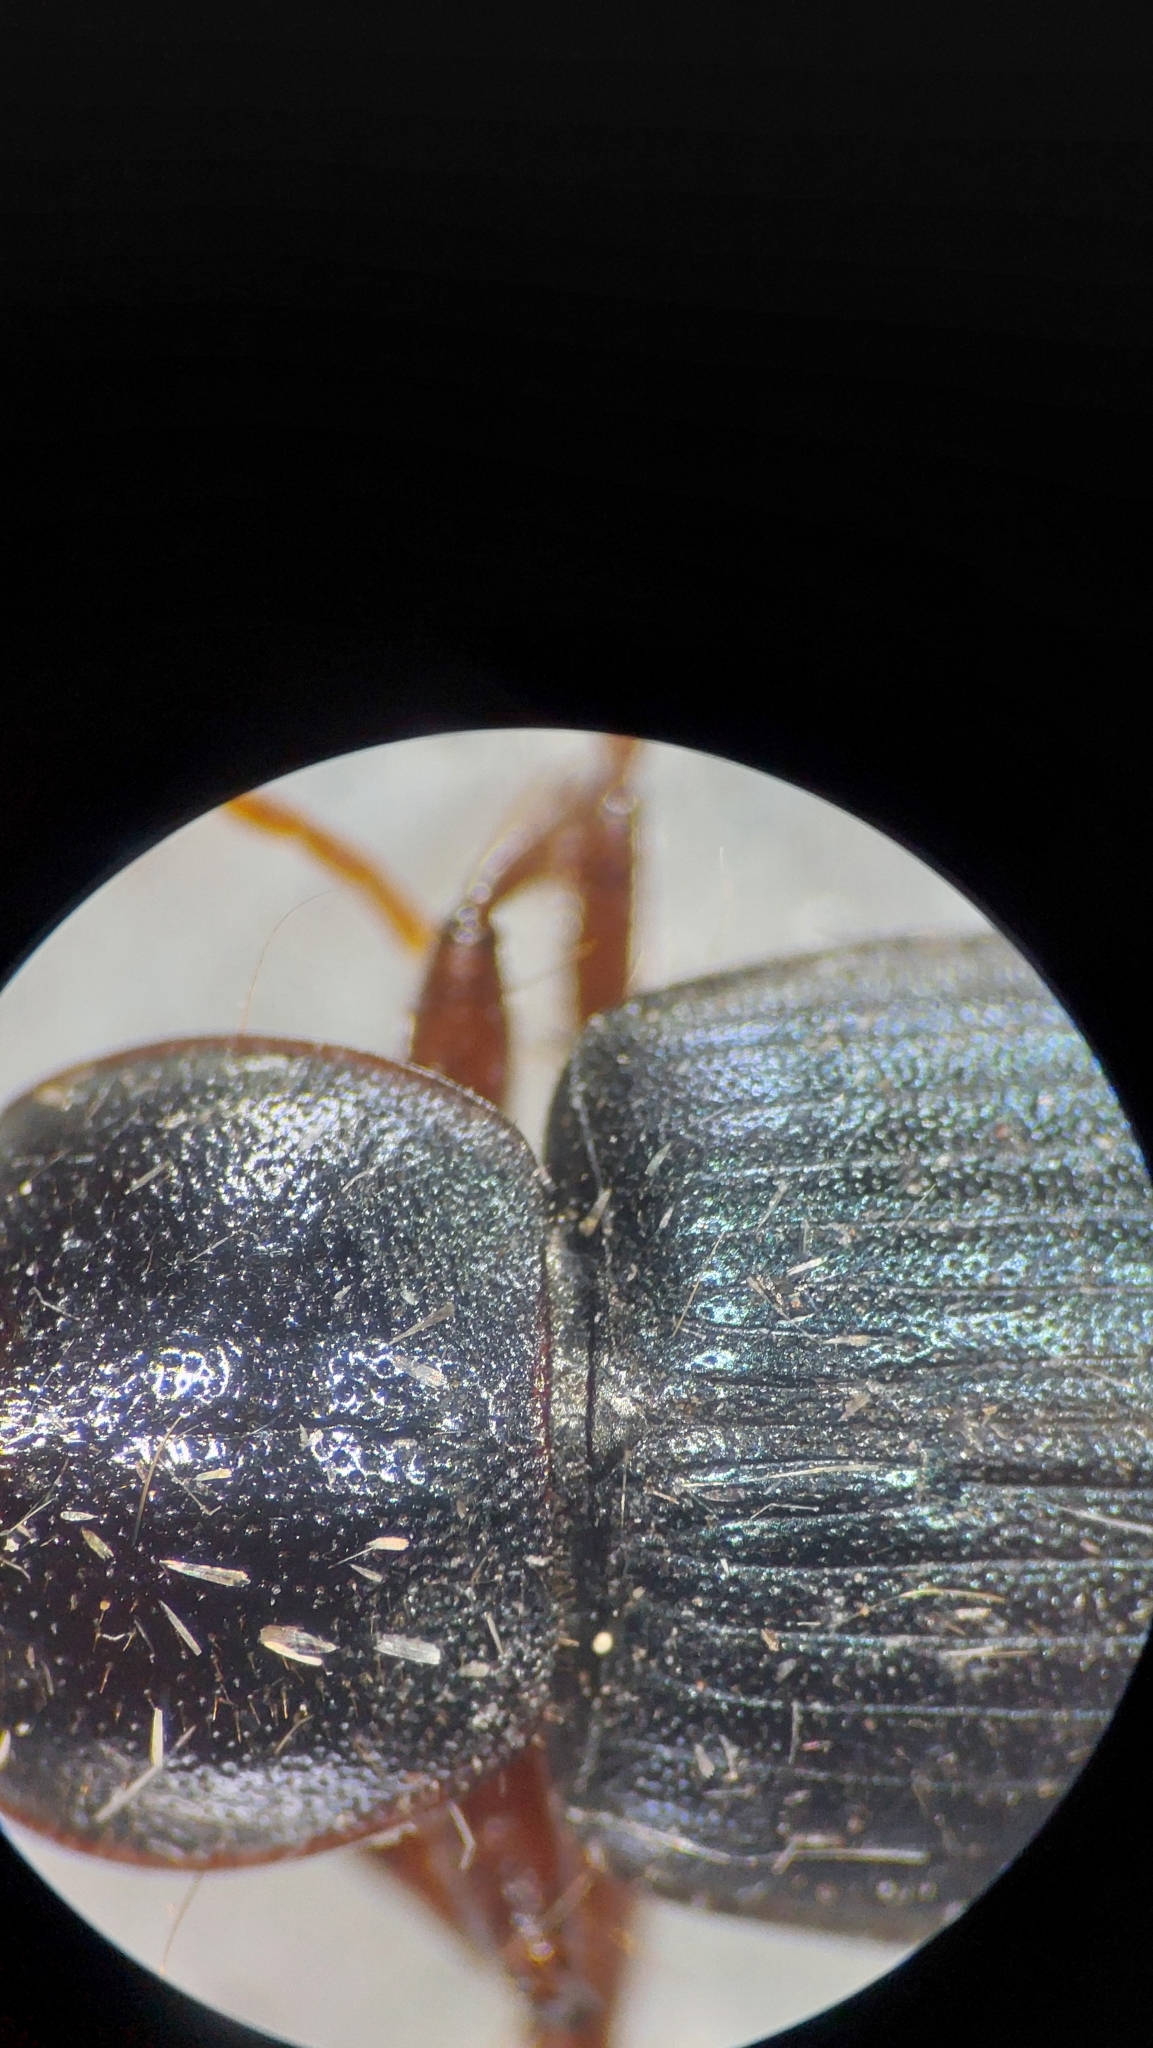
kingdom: Animalia
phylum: Arthropoda
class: Insecta
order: Coleoptera
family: Carabidae
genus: Ophonus
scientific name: Ophonus ardosiacus
